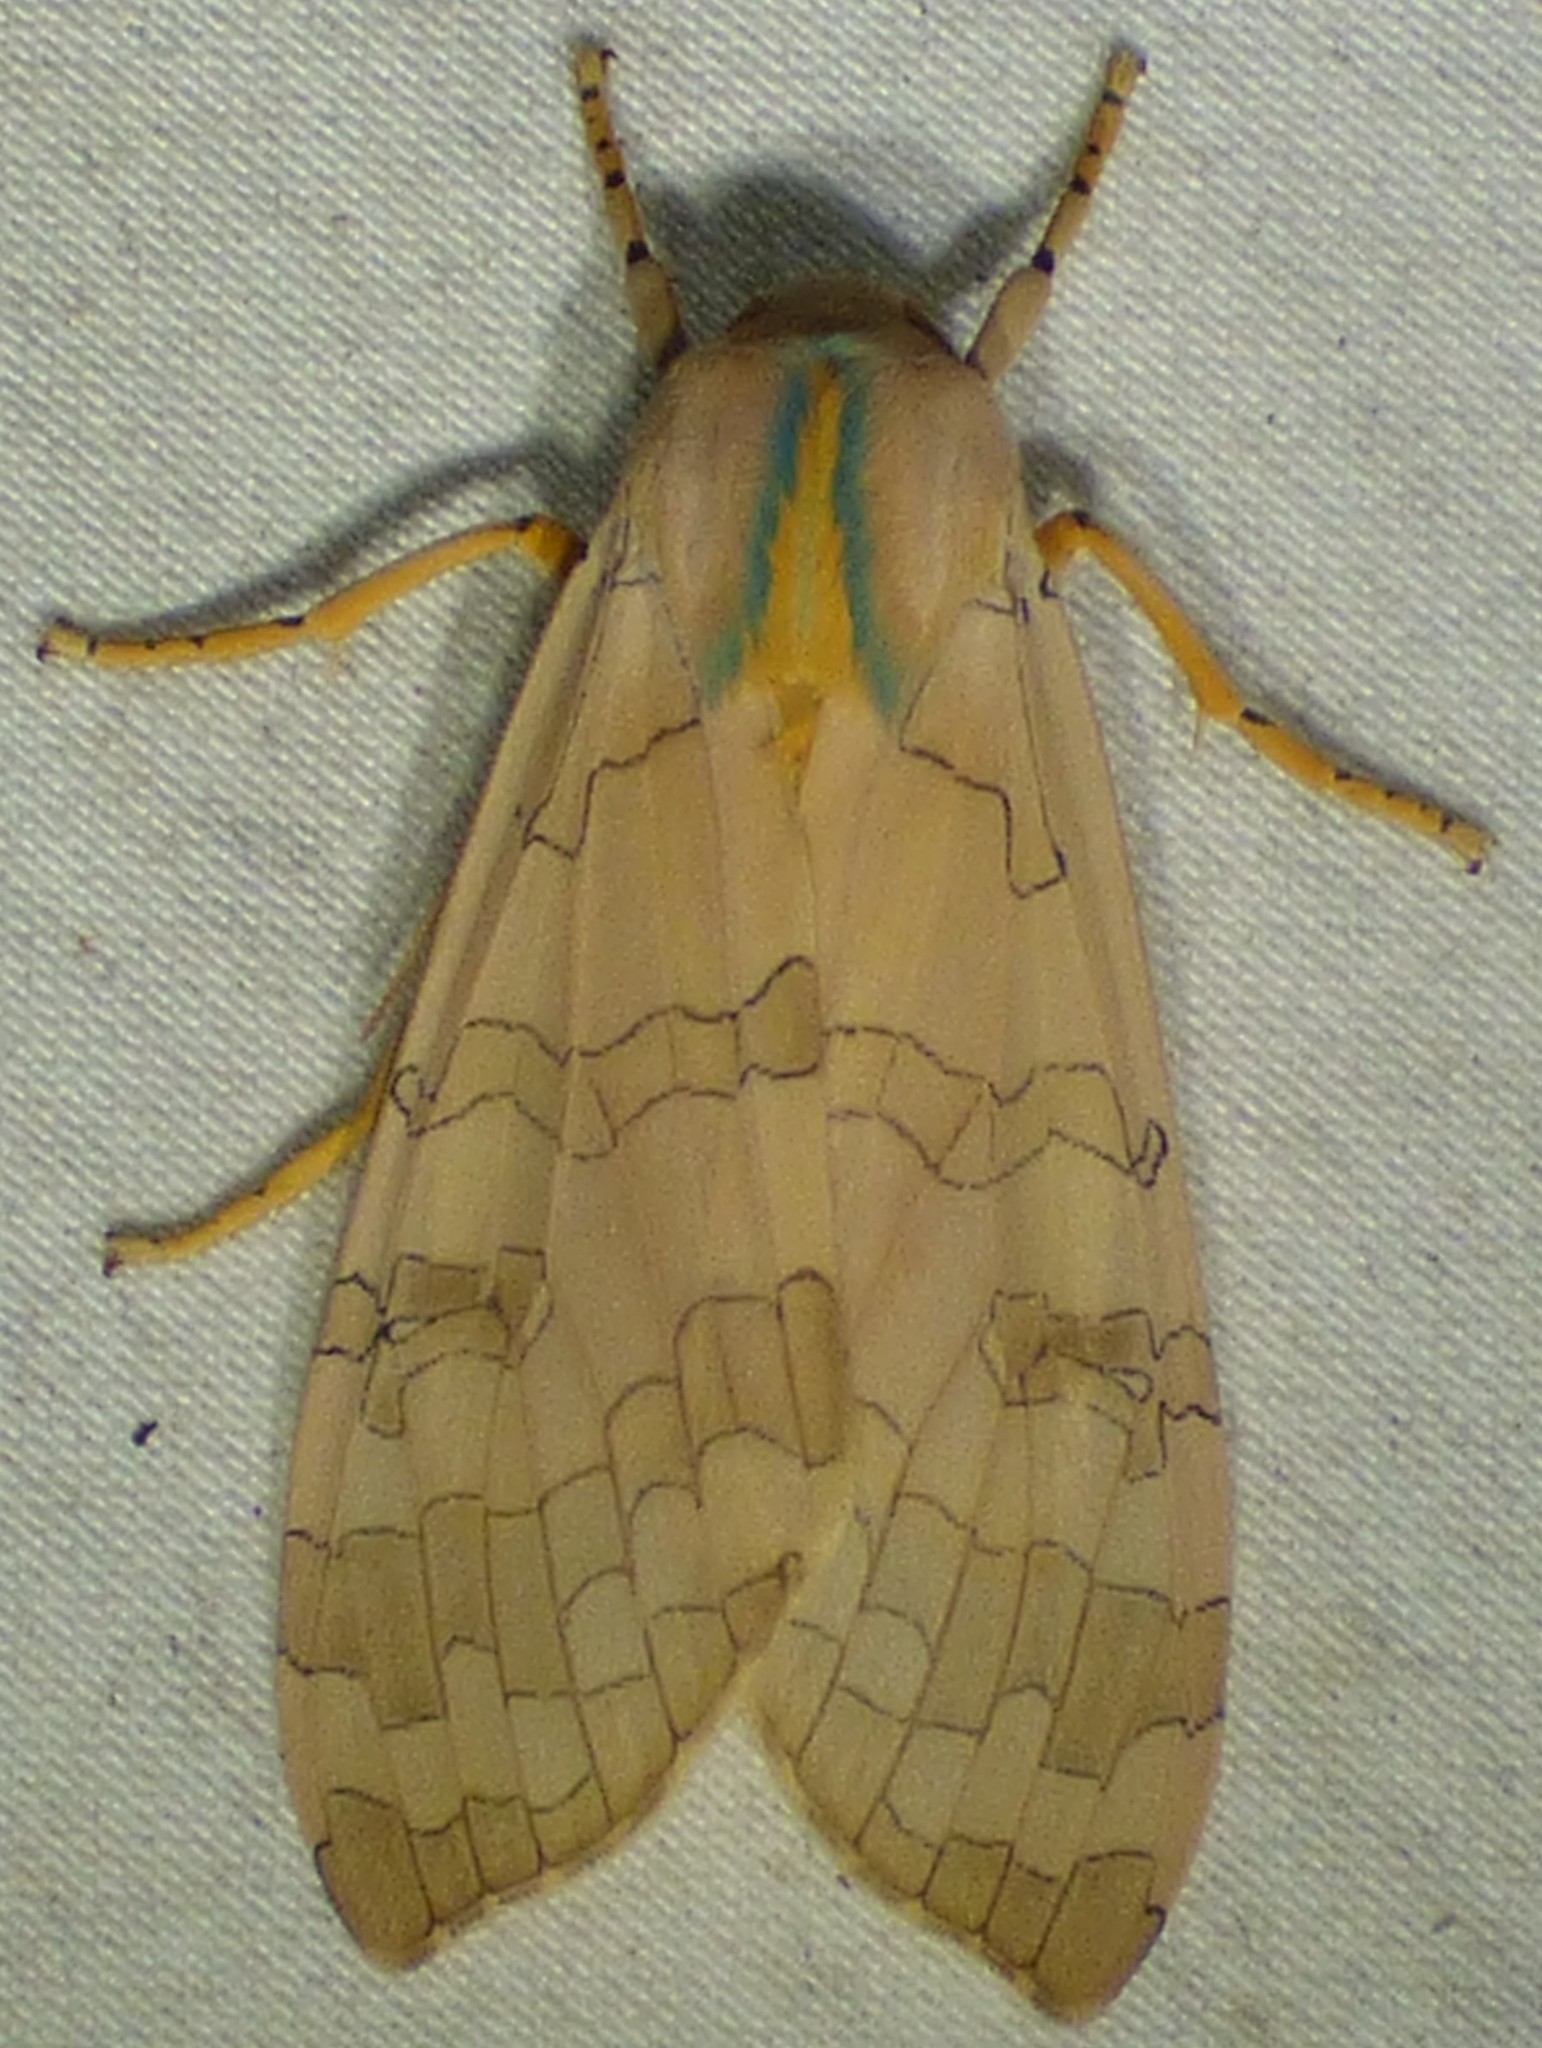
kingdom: Animalia
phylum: Arthropoda
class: Insecta
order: Lepidoptera
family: Erebidae
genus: Halysidota
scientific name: Halysidota
